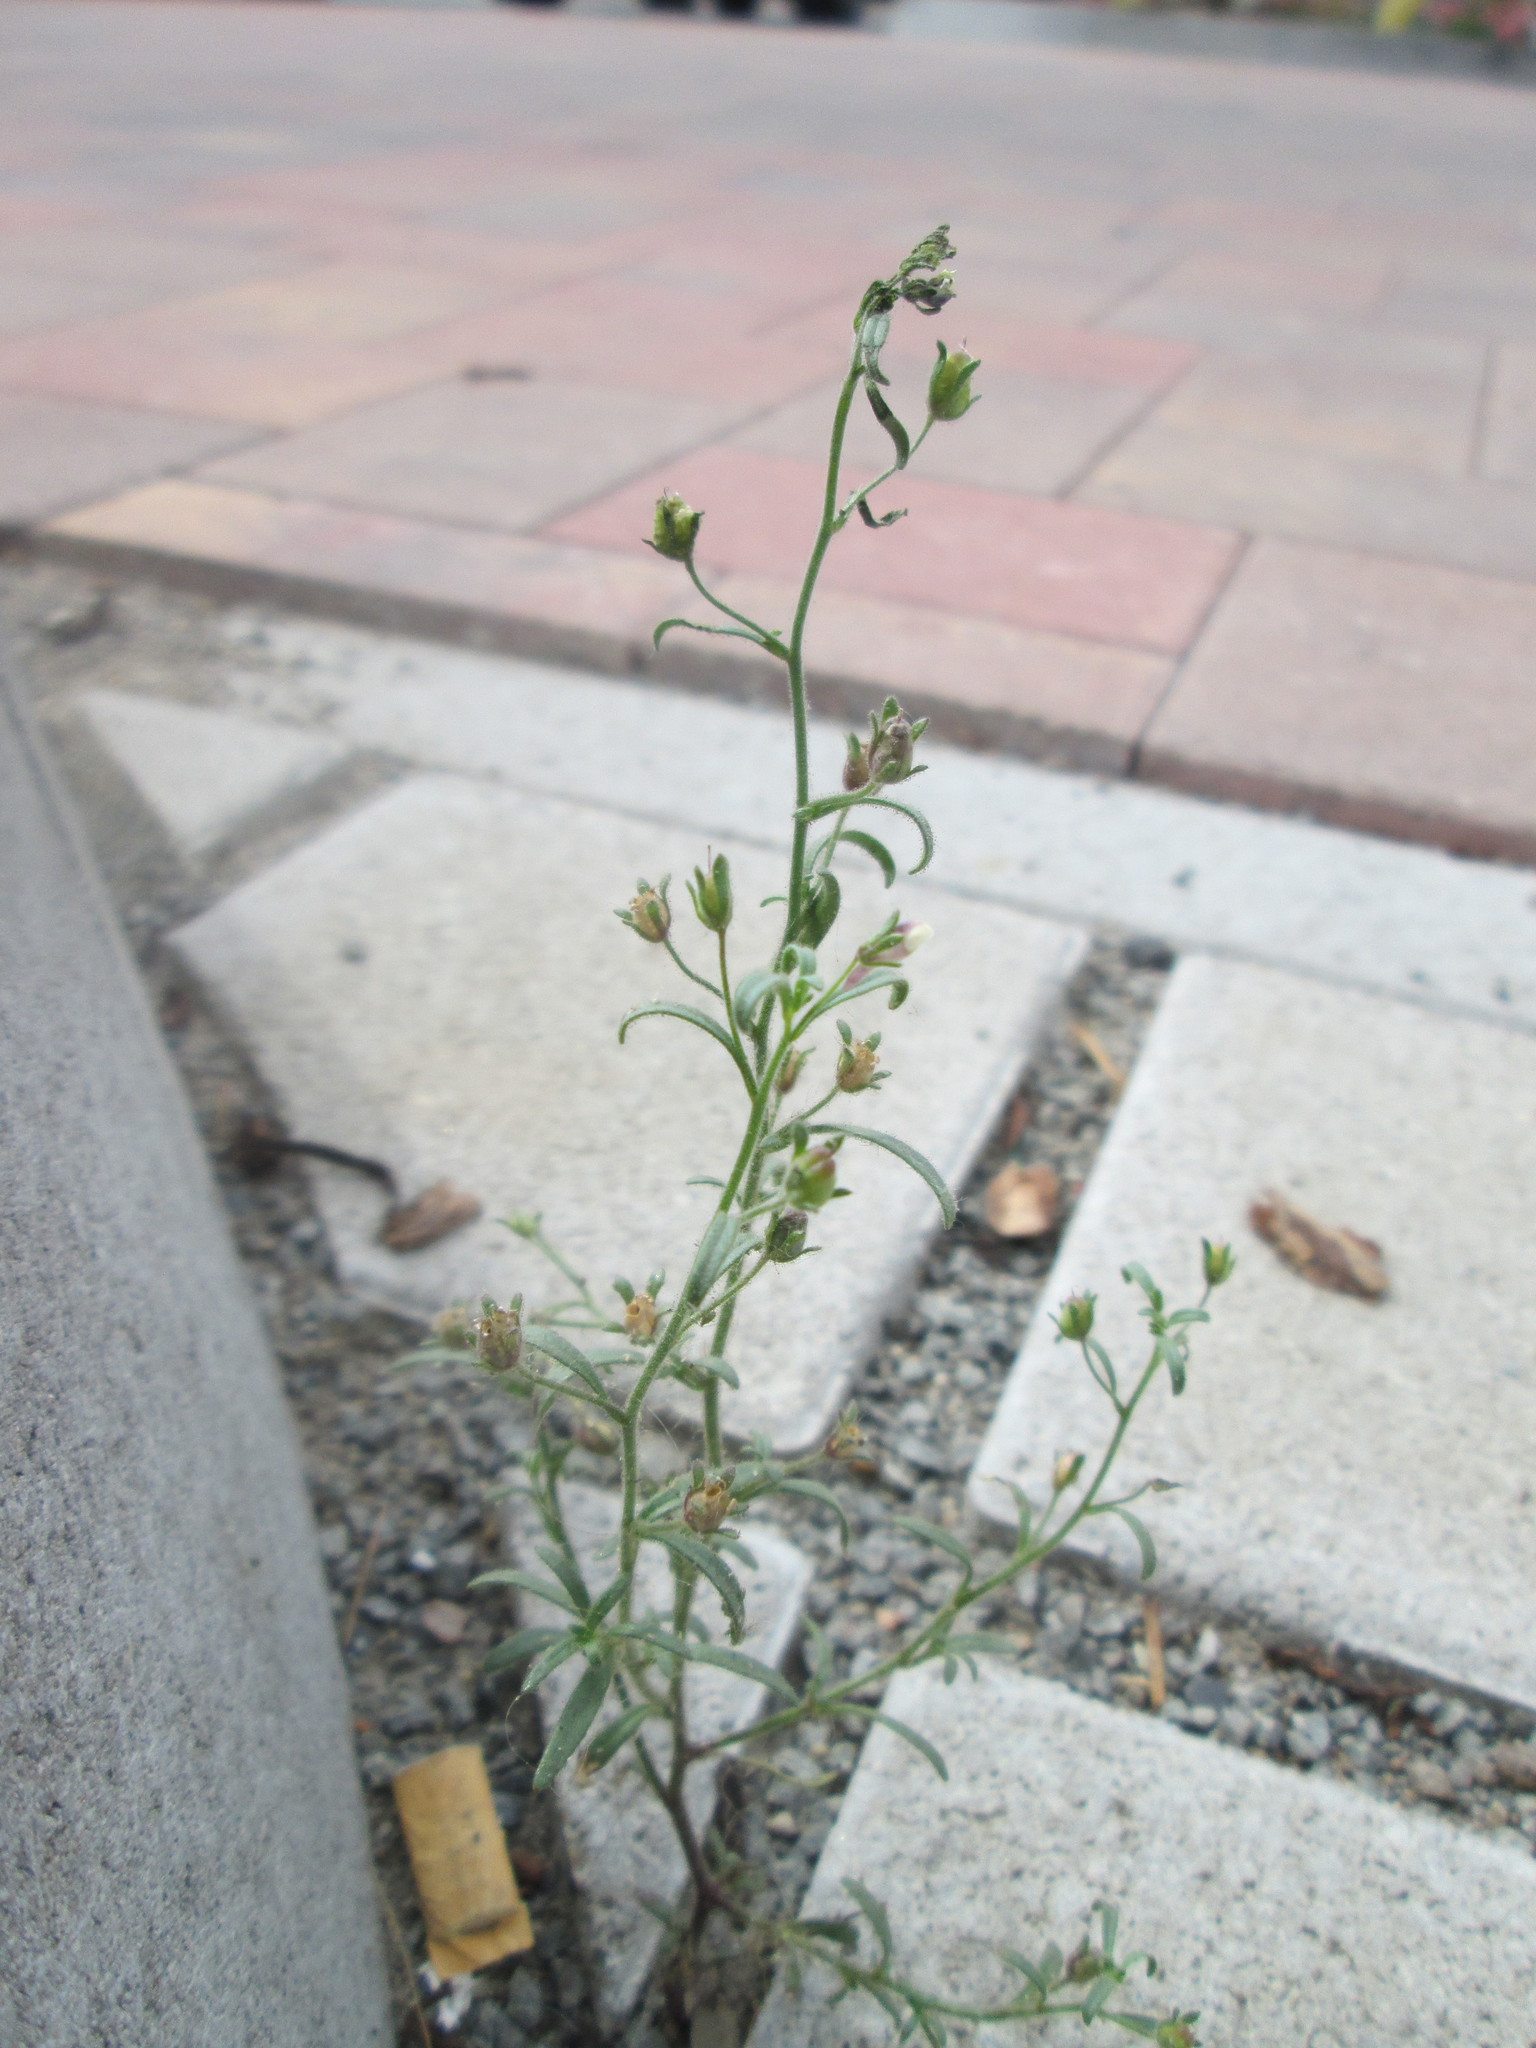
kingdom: Plantae
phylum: Tracheophyta
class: Magnoliopsida
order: Lamiales
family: Plantaginaceae
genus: Chaenorhinum
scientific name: Chaenorhinum minus
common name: Dwarf snapdragon
